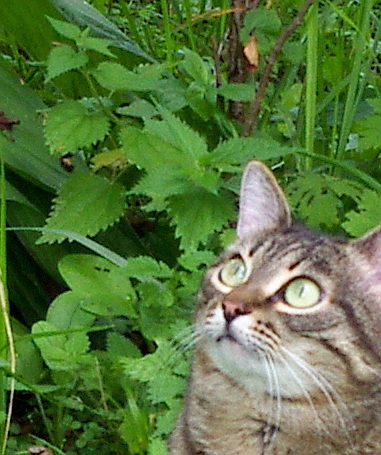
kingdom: Plantae
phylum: Tracheophyta
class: Magnoliopsida
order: Rosales
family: Urticaceae
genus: Urtica
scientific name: Urtica dioica
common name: Common nettle
